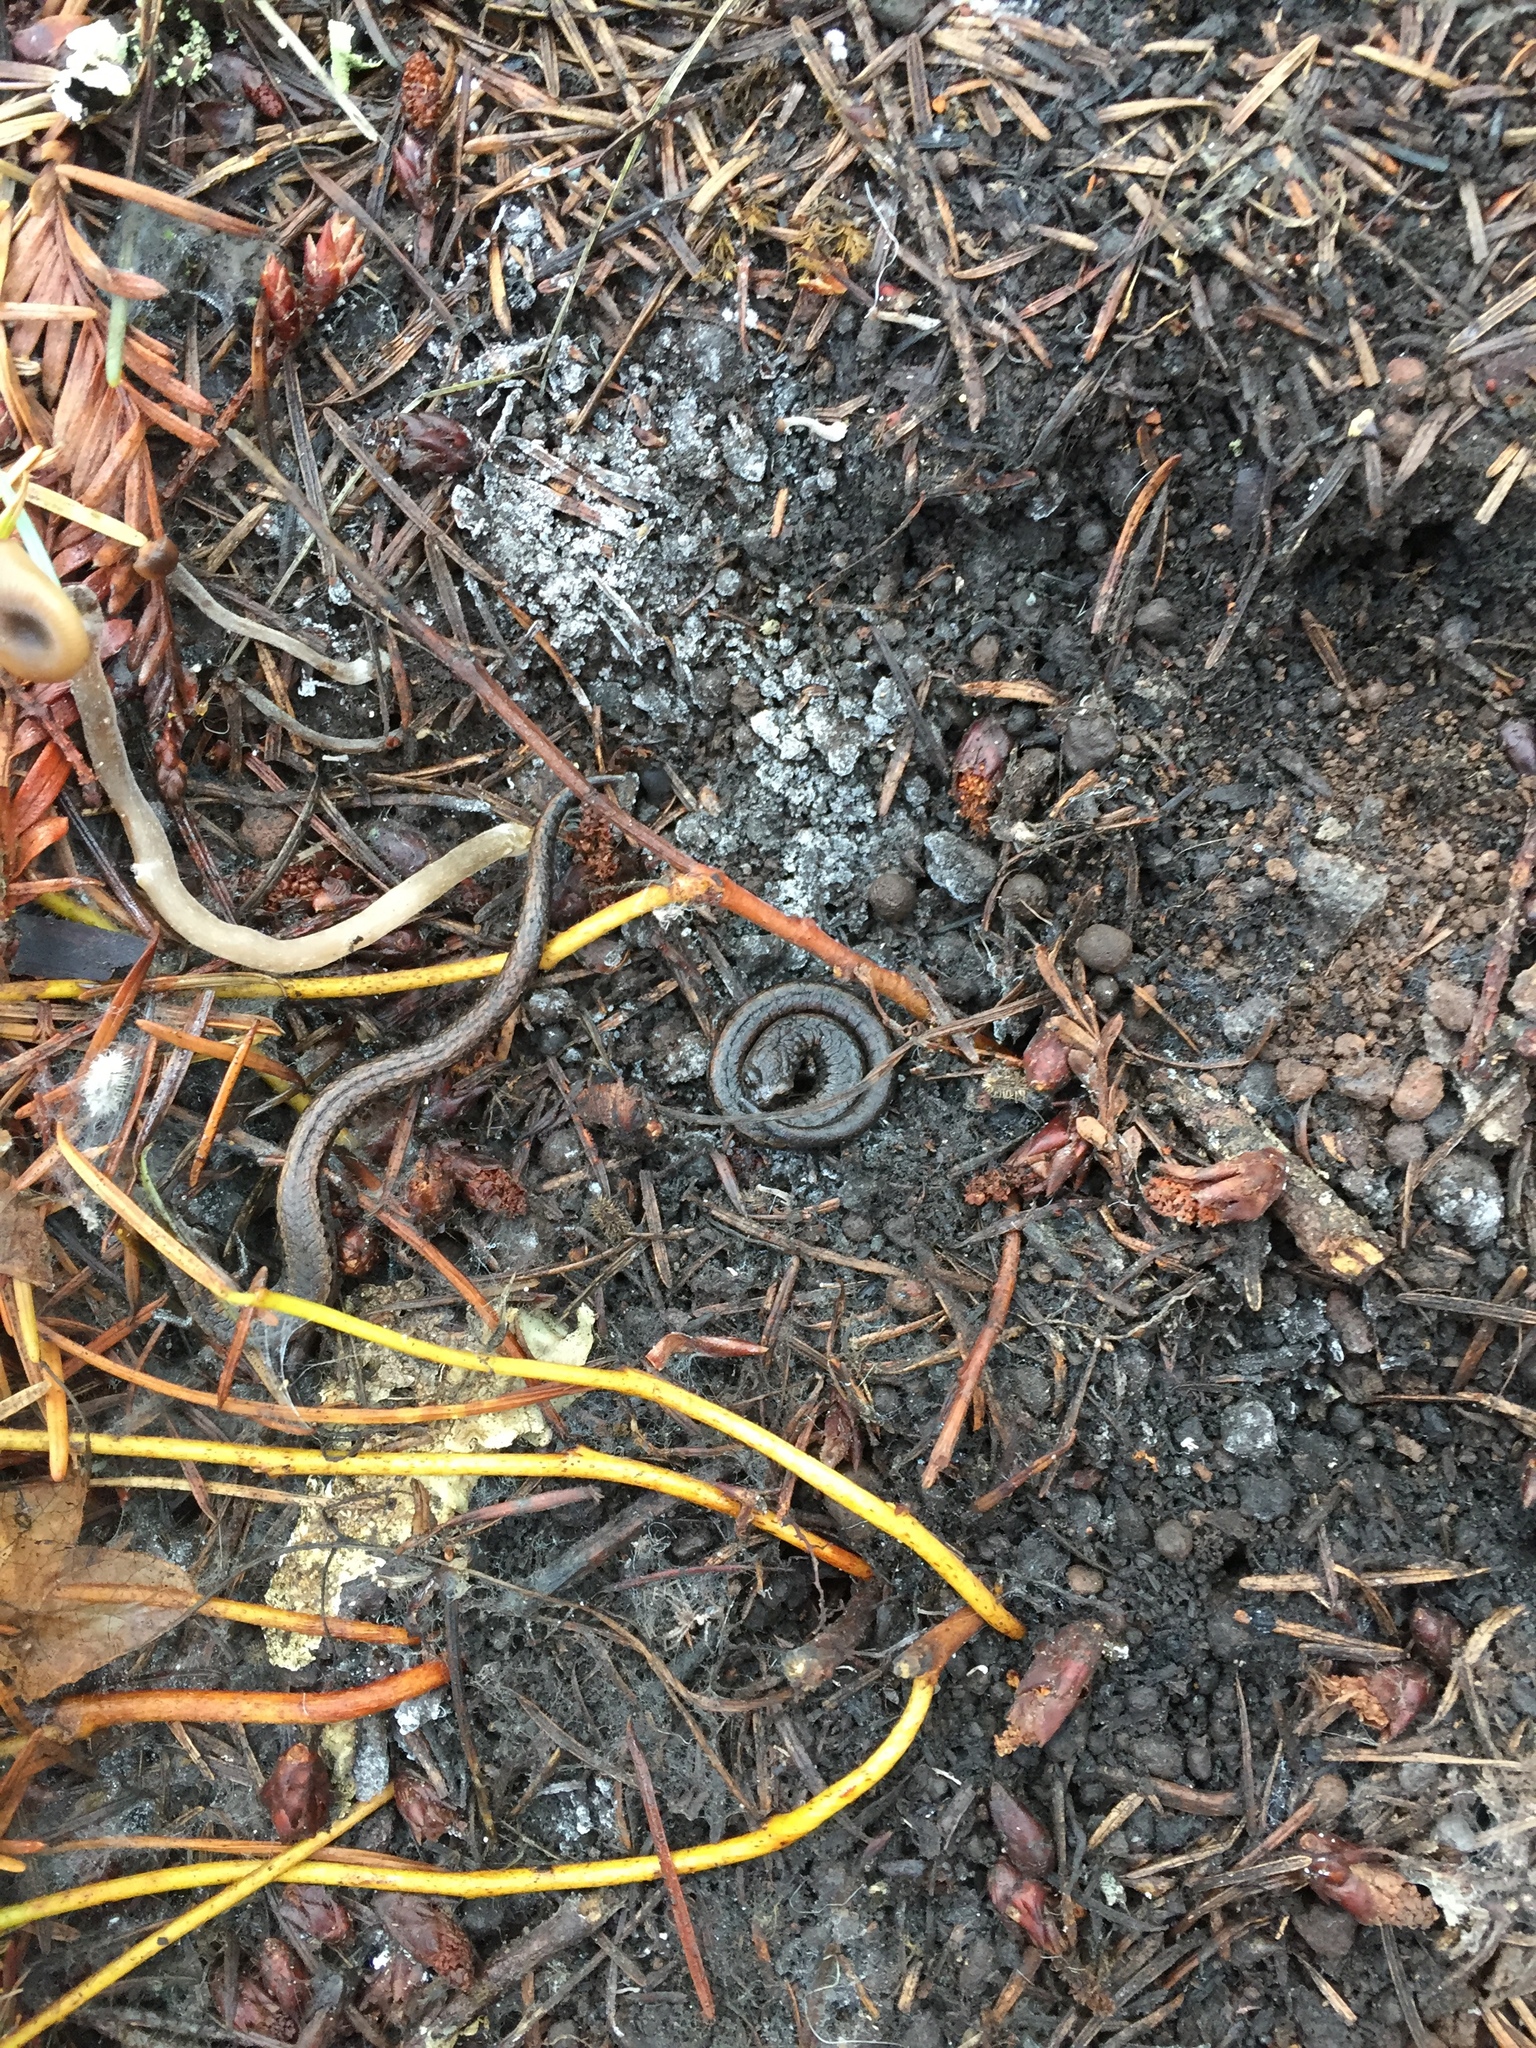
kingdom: Animalia
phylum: Chordata
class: Amphibia
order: Caudata
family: Plethodontidae
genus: Batrachoseps
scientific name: Batrachoseps attenuatus
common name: California slender salamander
